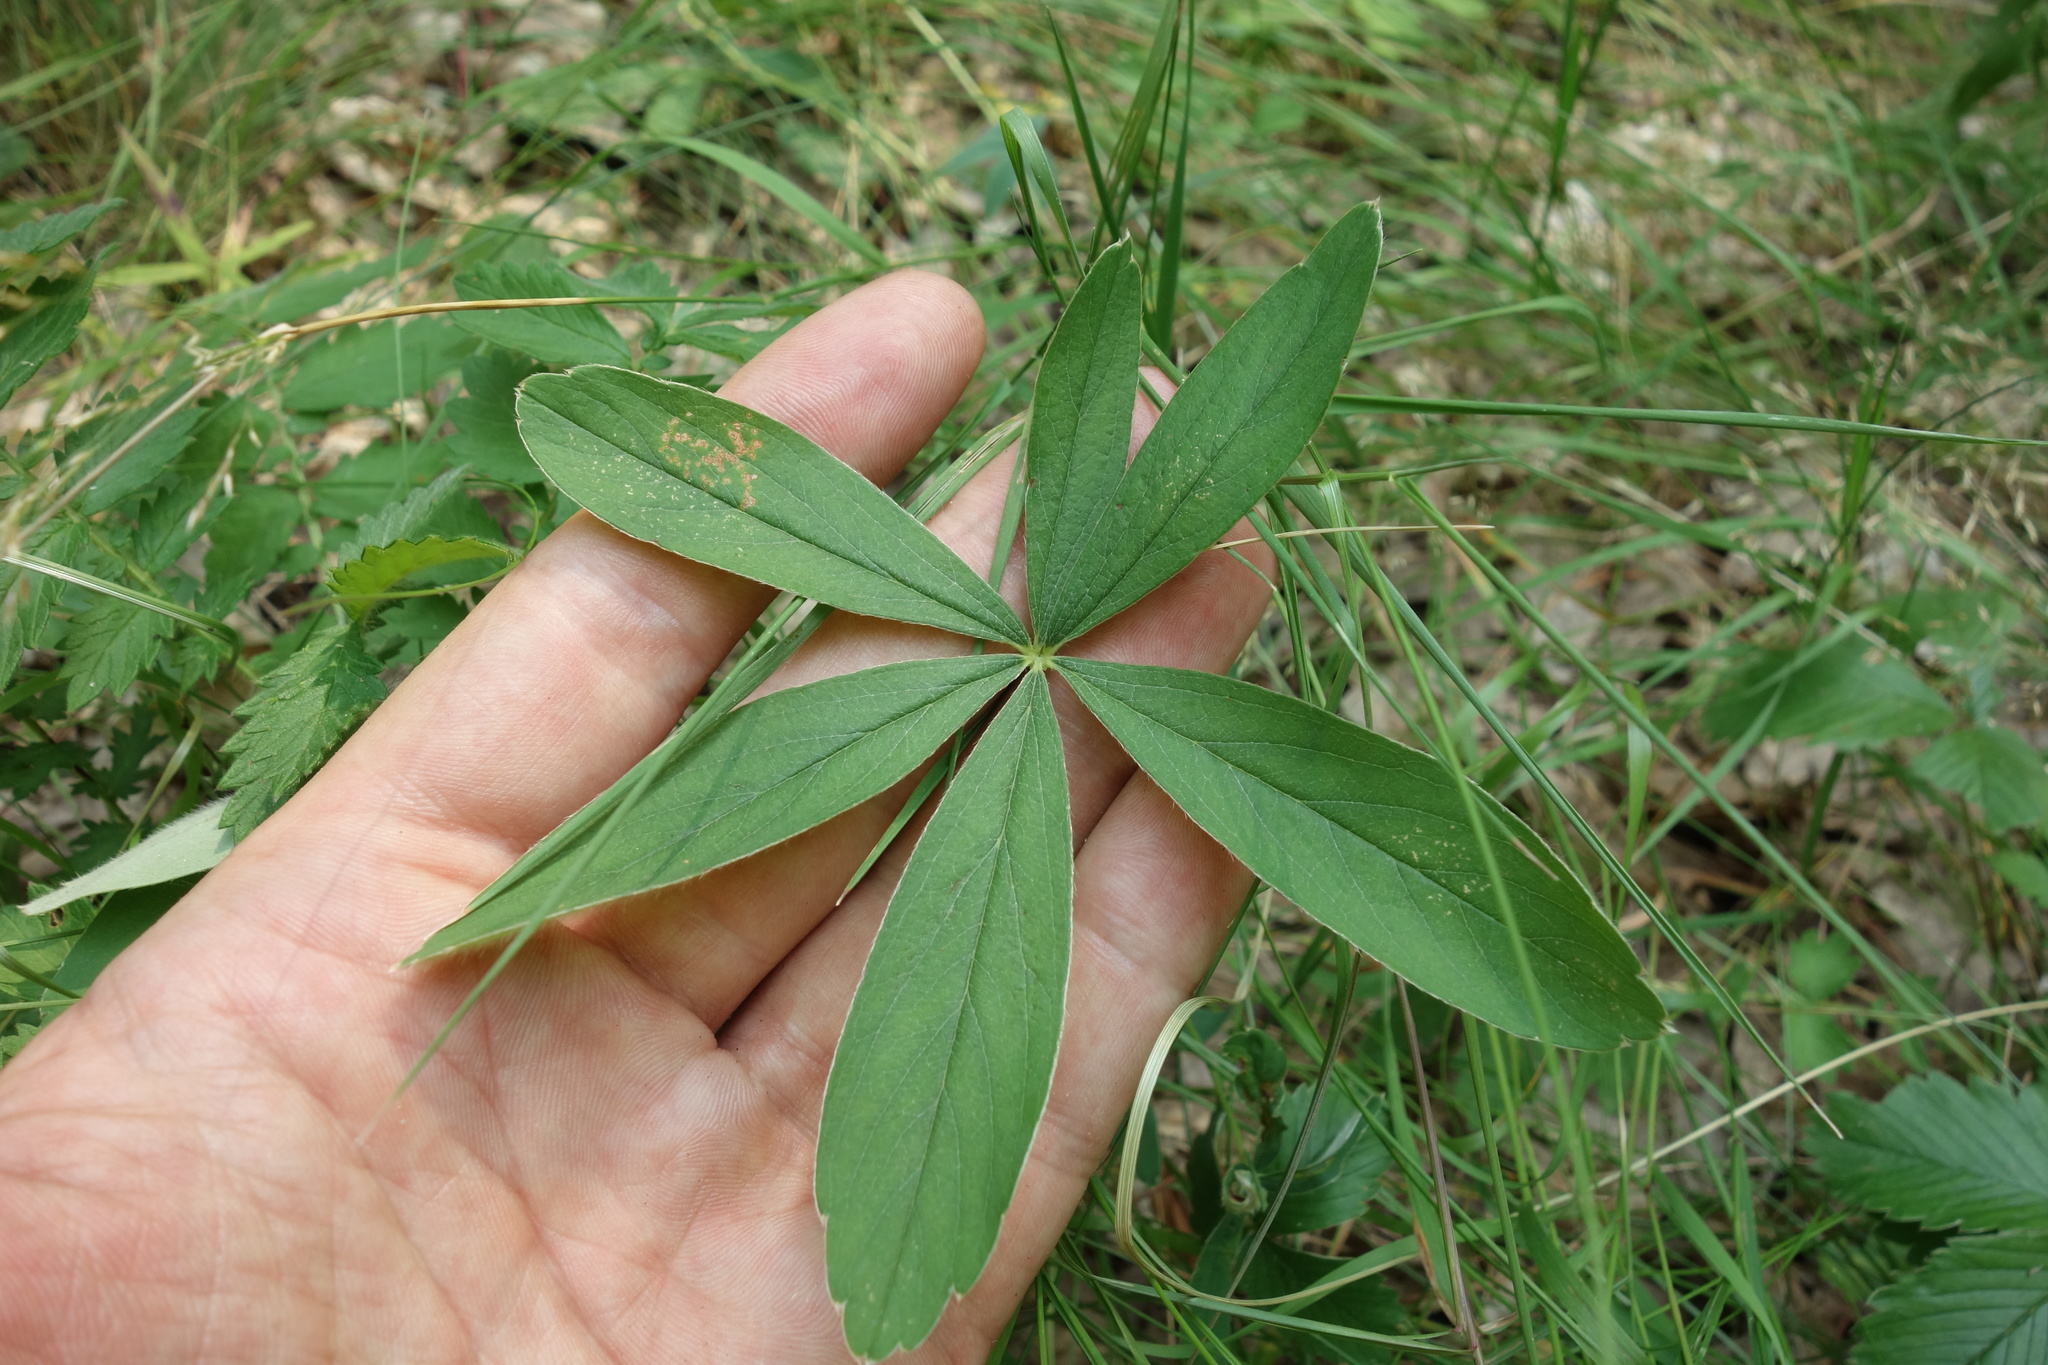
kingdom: Plantae
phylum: Tracheophyta
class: Magnoliopsida
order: Rosales
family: Rosaceae
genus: Potentilla
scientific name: Potentilla alba
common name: White cinquefoil
